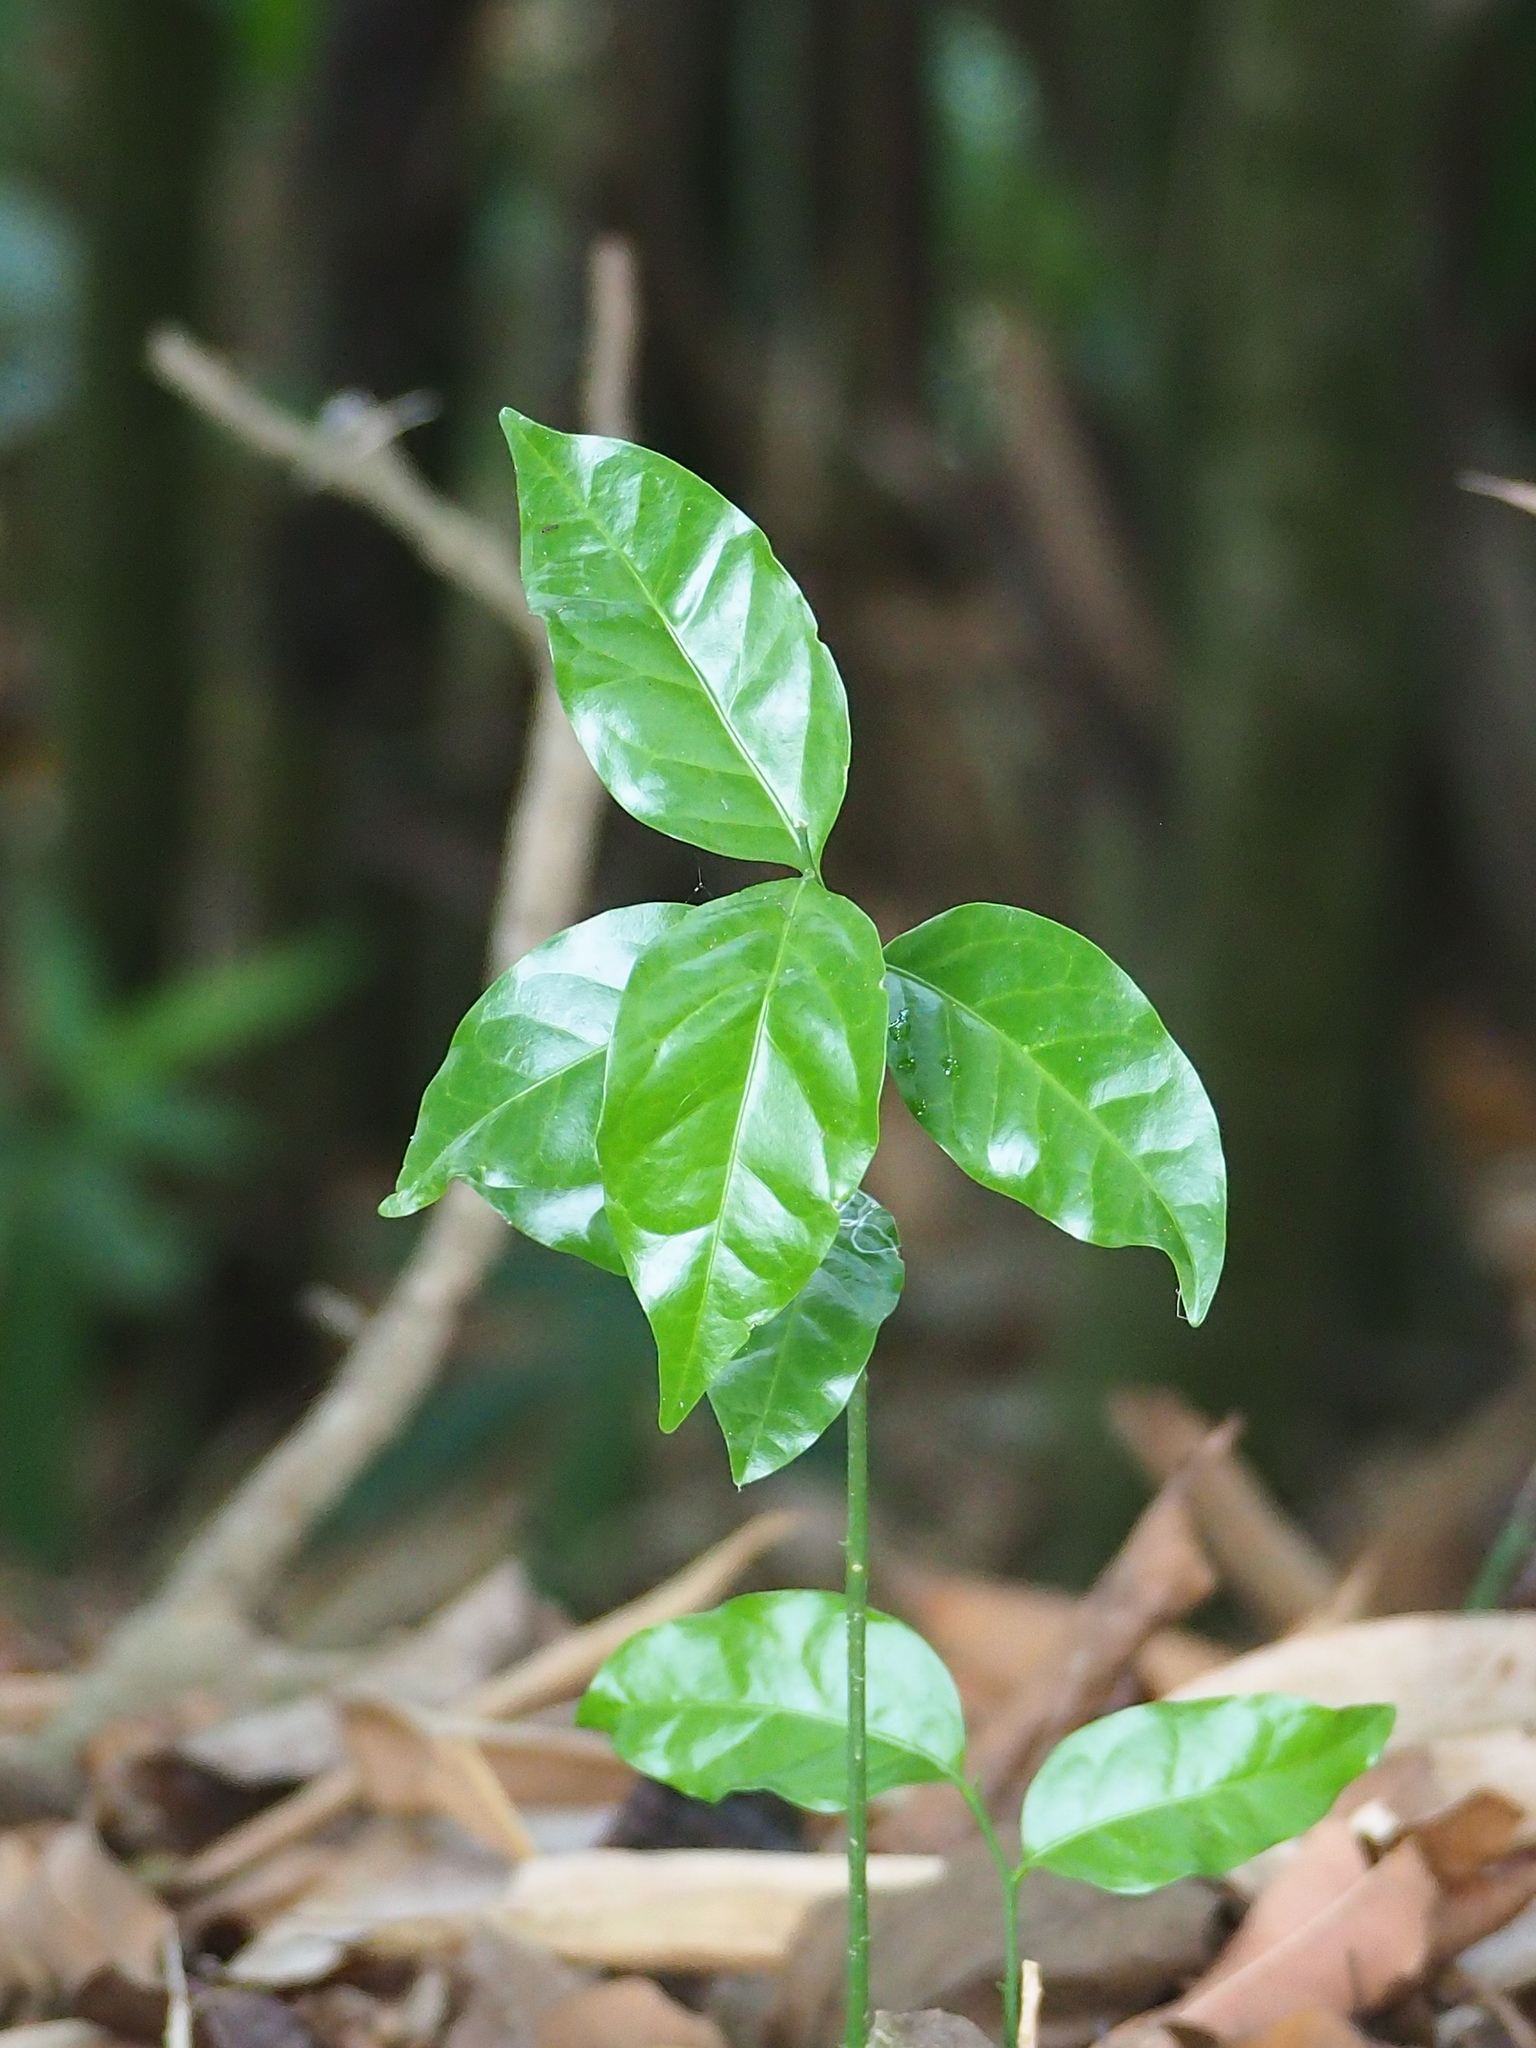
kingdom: Plantae
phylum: Tracheophyta
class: Magnoliopsida
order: Santalales
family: Opiliaceae
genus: Champereia
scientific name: Champereia manillana
